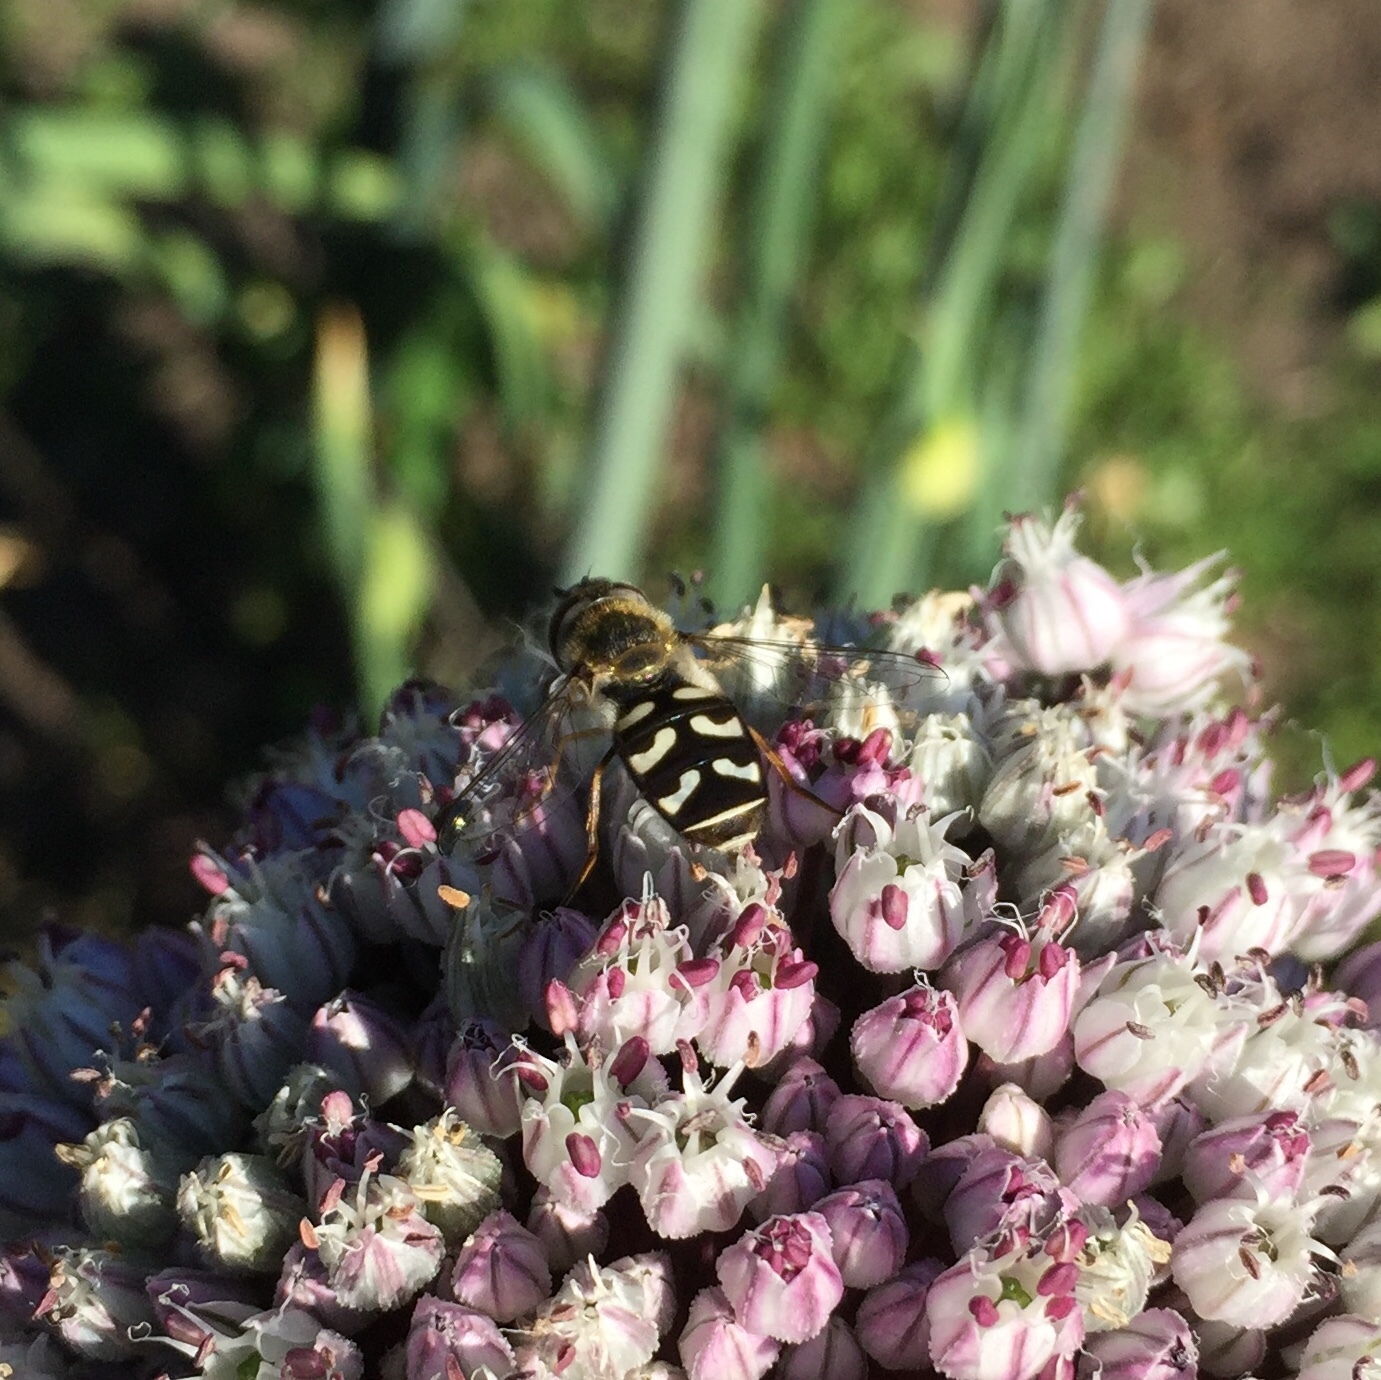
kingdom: Animalia
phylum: Arthropoda
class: Insecta
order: Diptera
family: Syrphidae
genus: Scaeva
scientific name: Scaeva pyrastri
